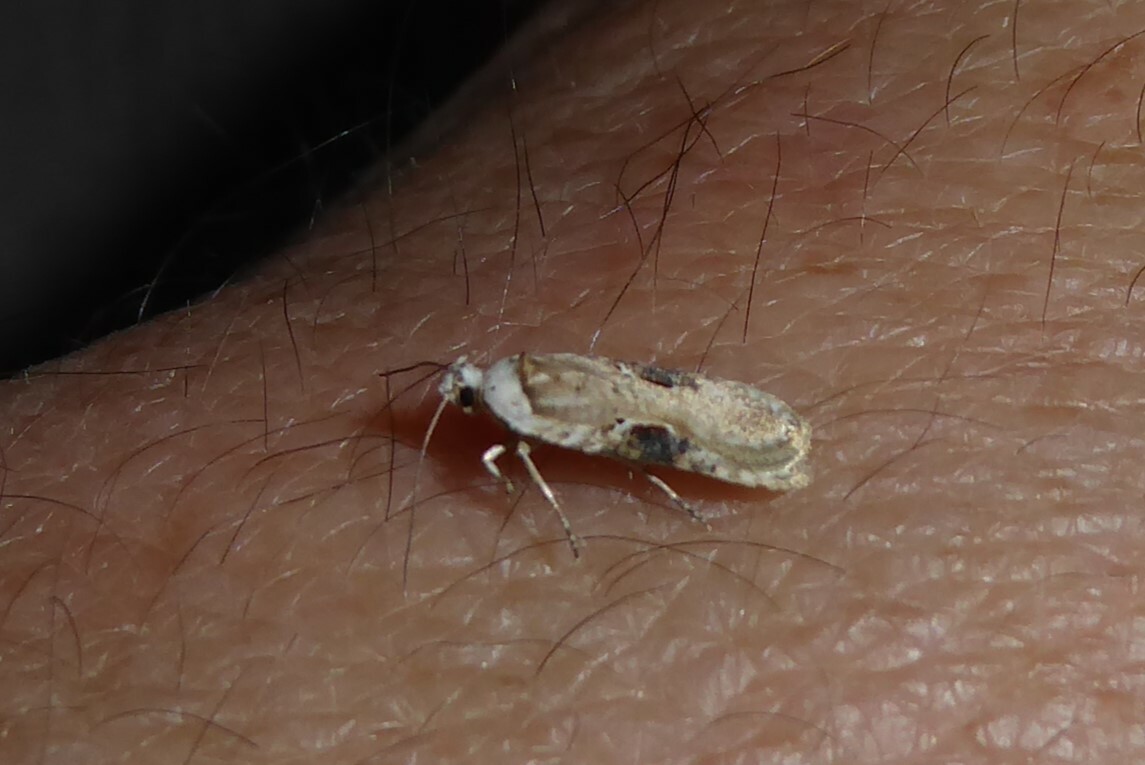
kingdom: Animalia
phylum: Arthropoda
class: Insecta
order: Lepidoptera
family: Depressariidae
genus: Agonopterix
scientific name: Agonopterix alstroemeriana
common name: Moth
